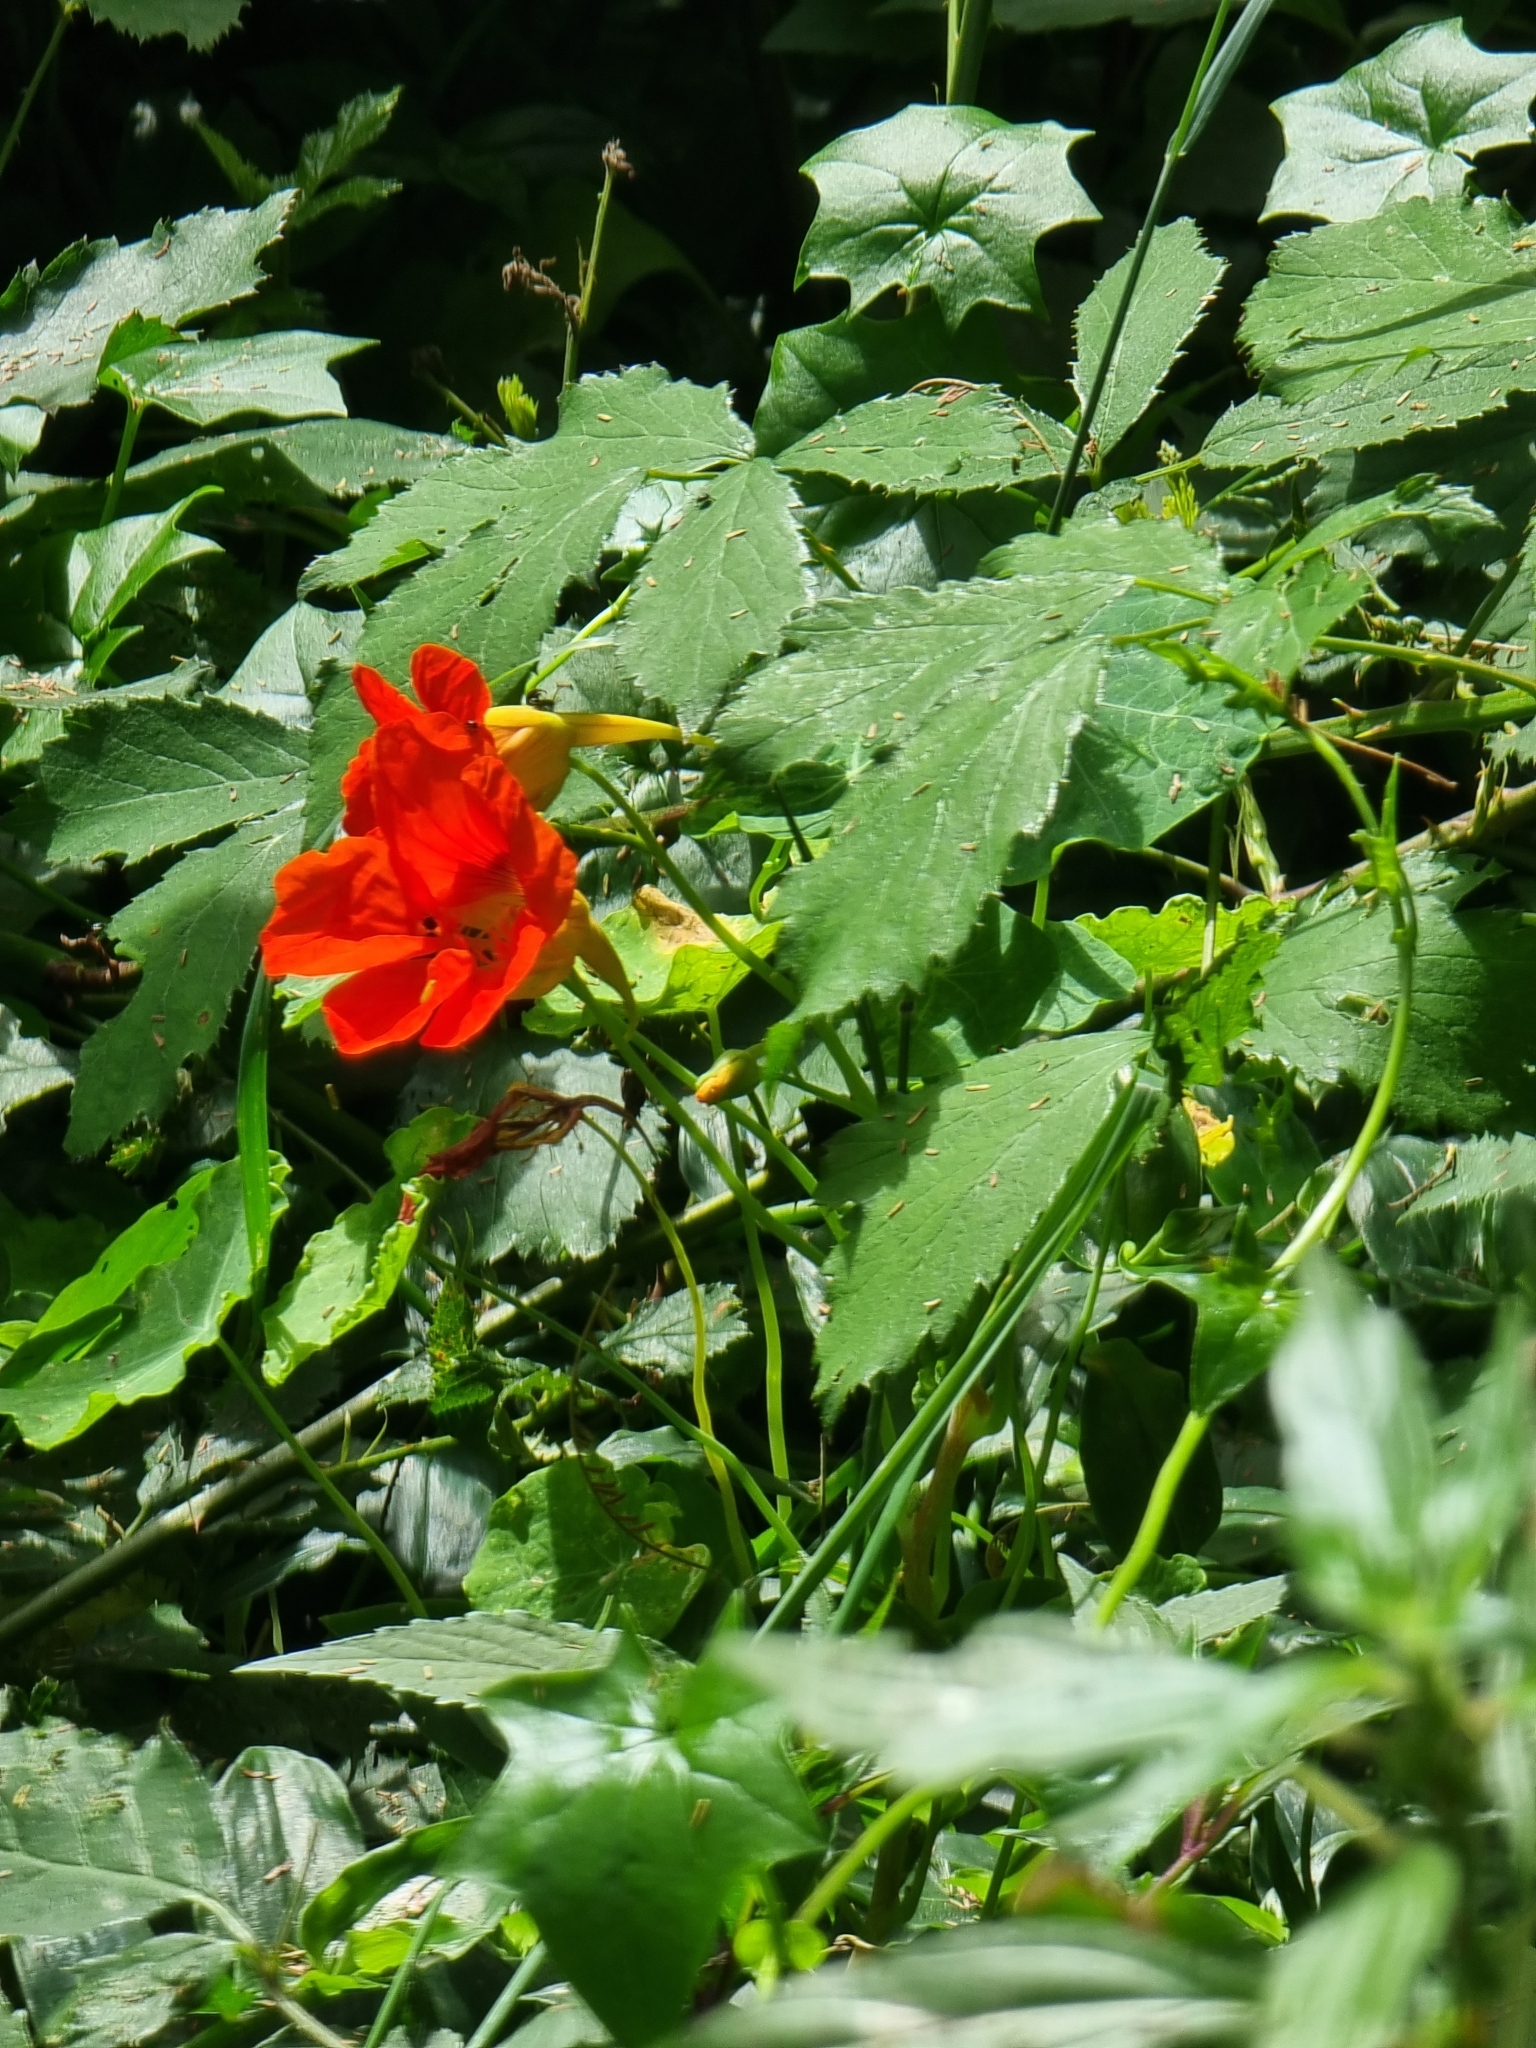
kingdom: Plantae
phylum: Tracheophyta
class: Magnoliopsida
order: Brassicales
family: Tropaeolaceae
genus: Tropaeolum
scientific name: Tropaeolum majus
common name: Nasturtium
